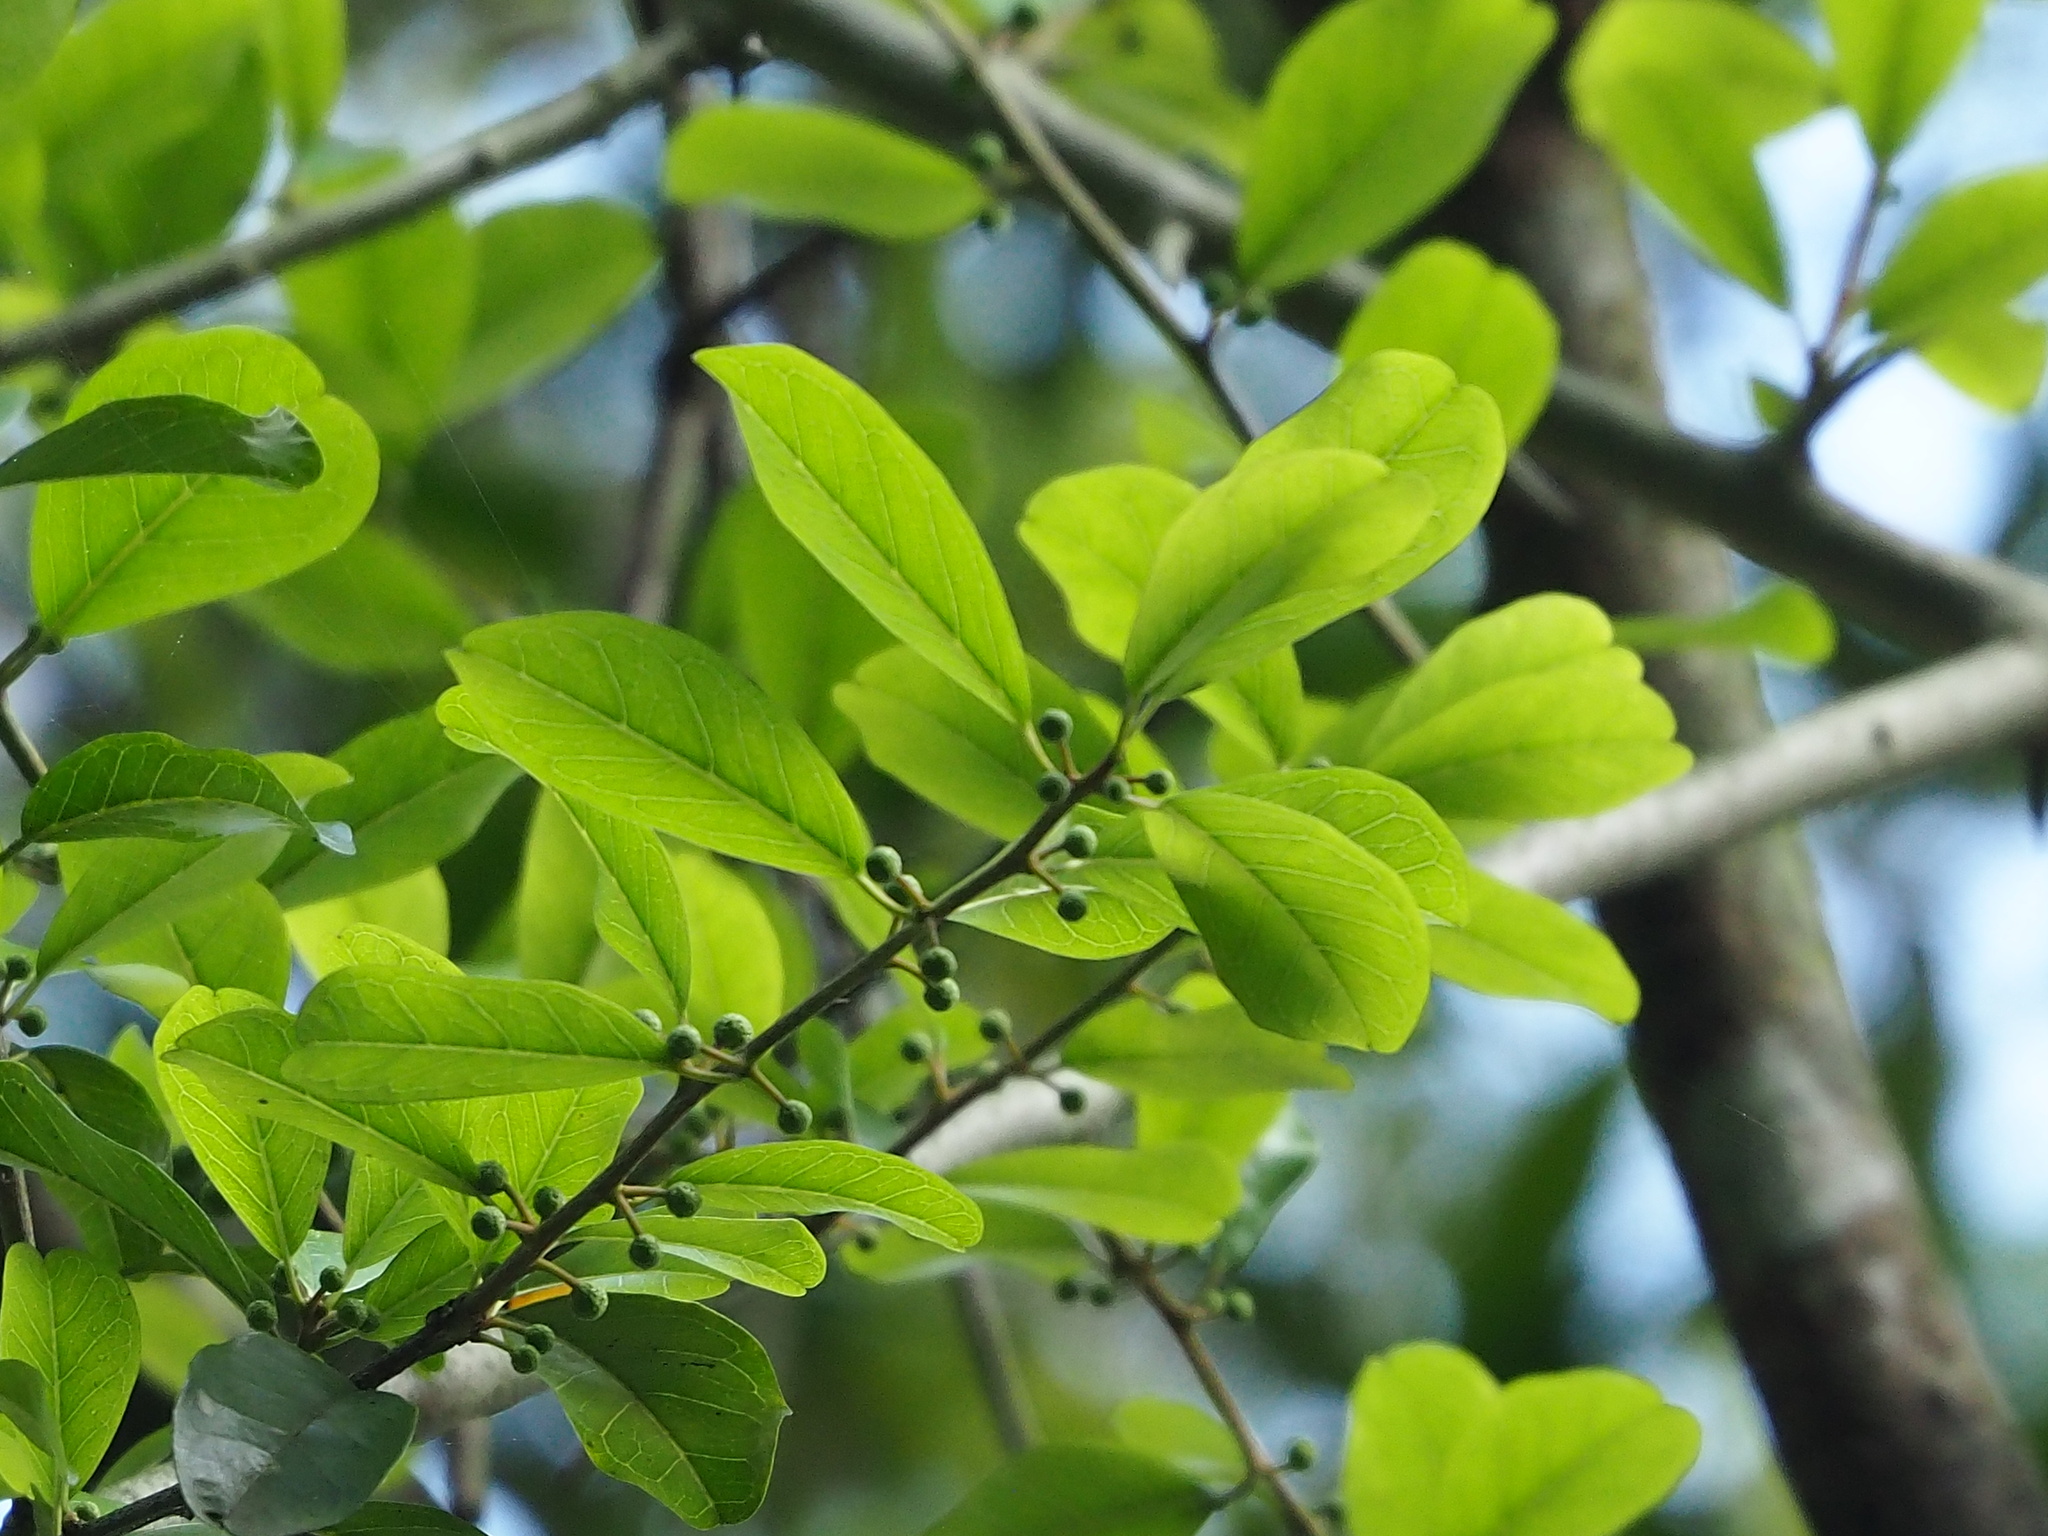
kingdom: Plantae
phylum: Tracheophyta
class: Magnoliopsida
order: Rosales
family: Moraceae
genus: Maclura
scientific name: Maclura cochinchinensis
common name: Cockspurthorn
